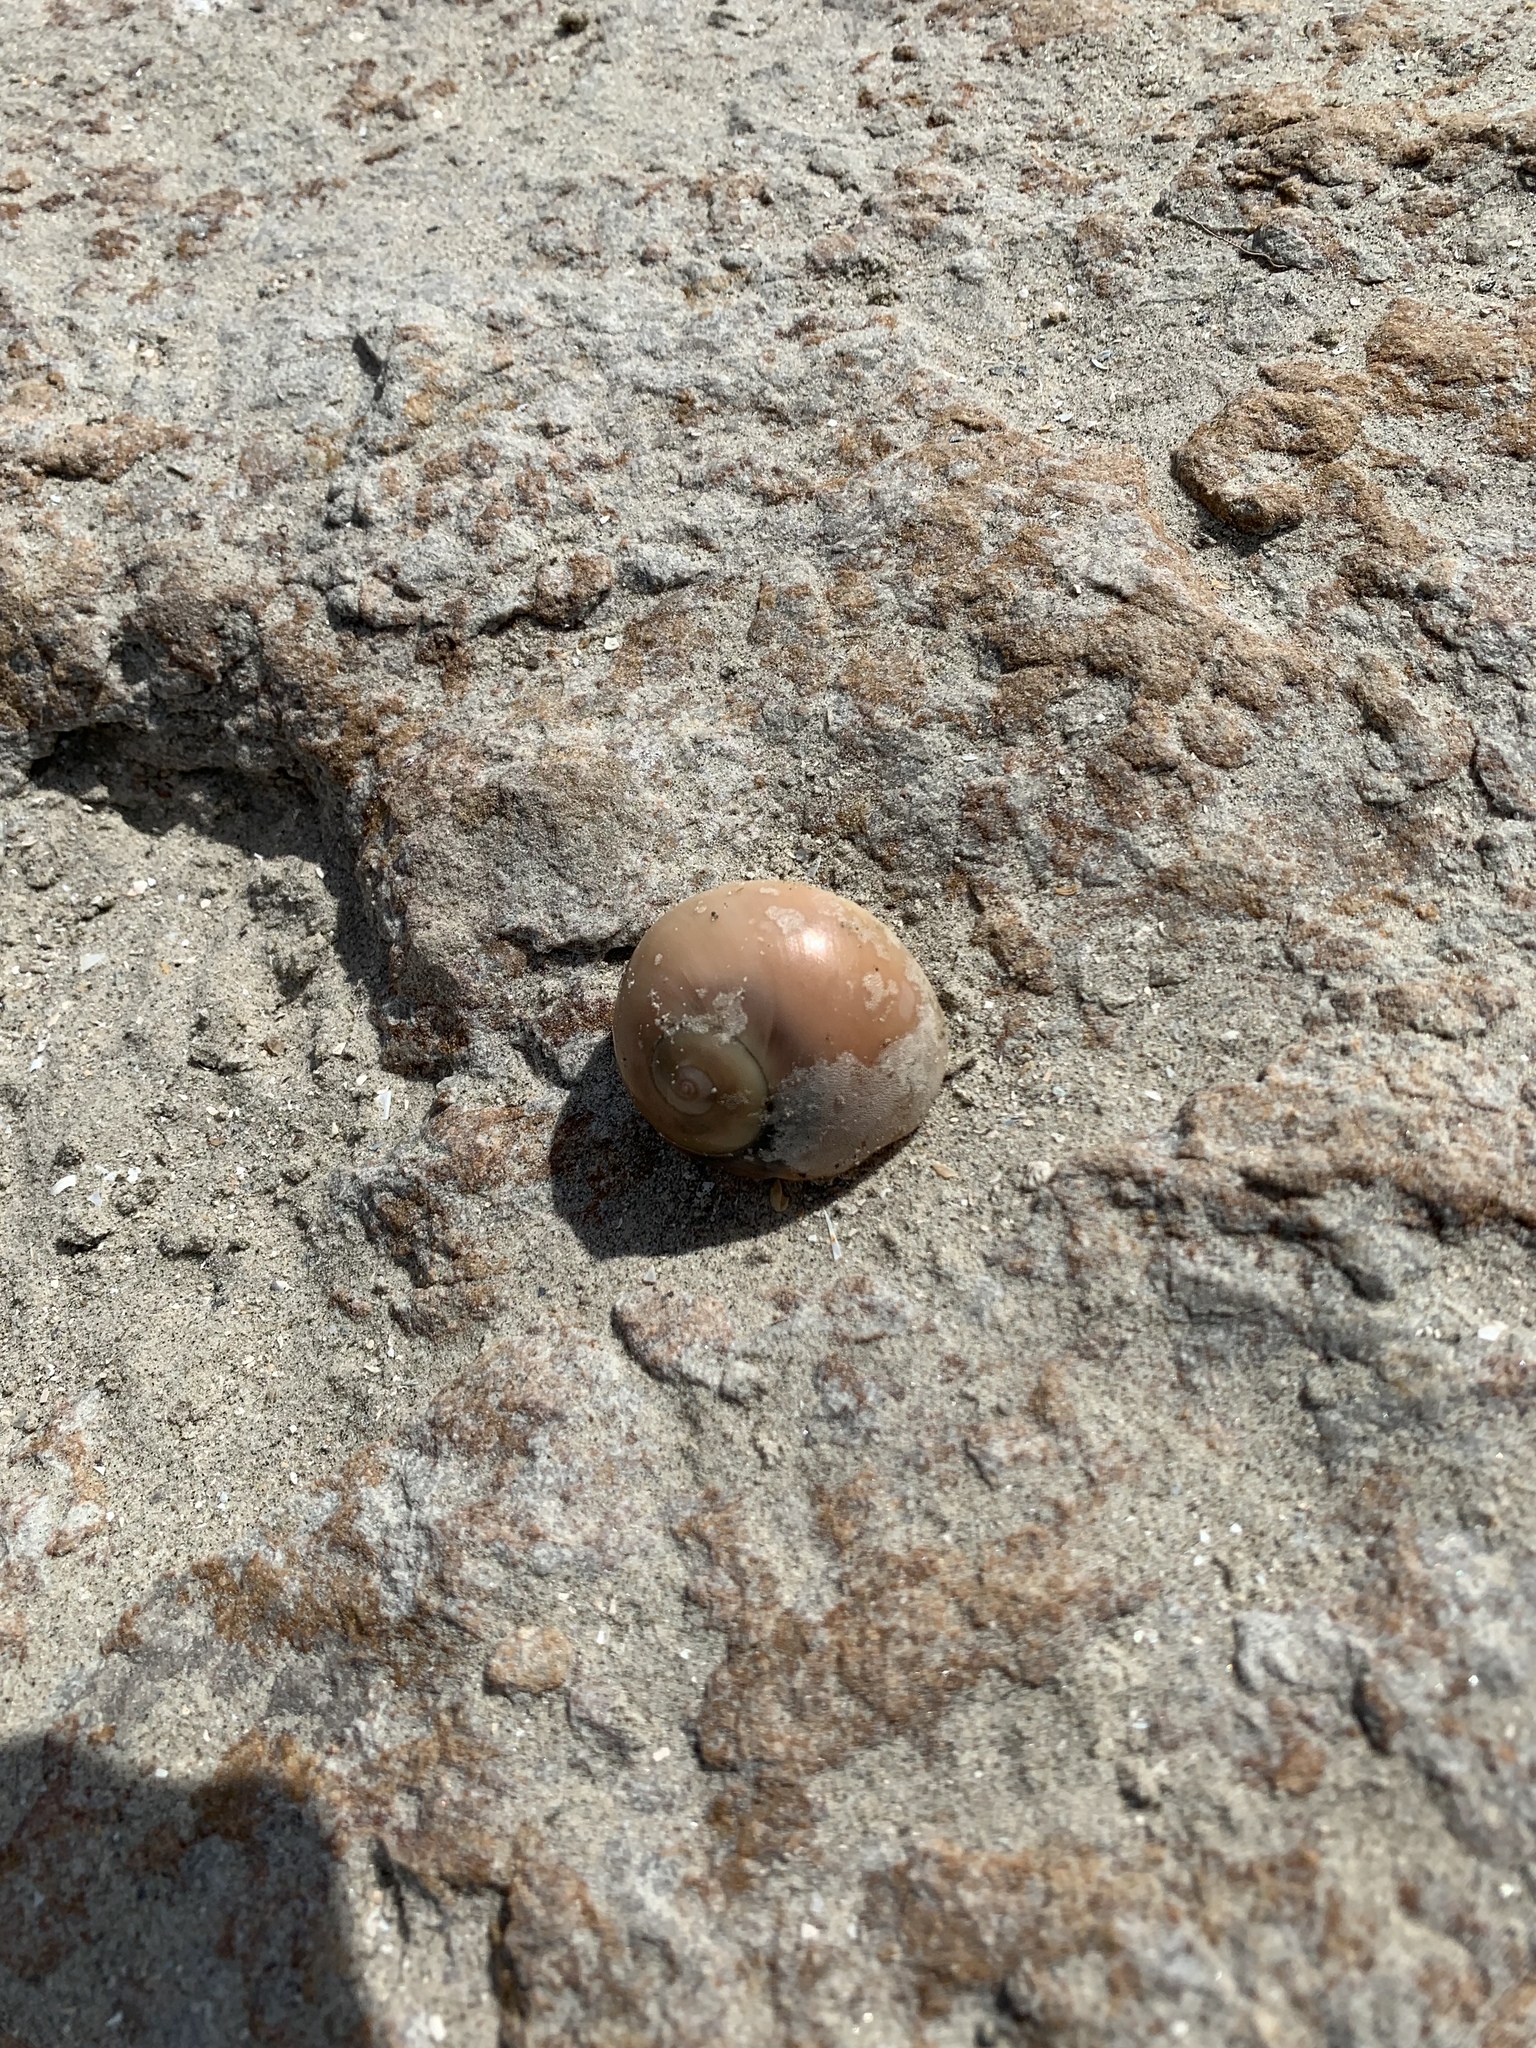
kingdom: Animalia
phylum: Mollusca
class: Gastropoda
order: Littorinimorpha
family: Naticidae
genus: Neverita
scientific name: Neverita delessertiana
